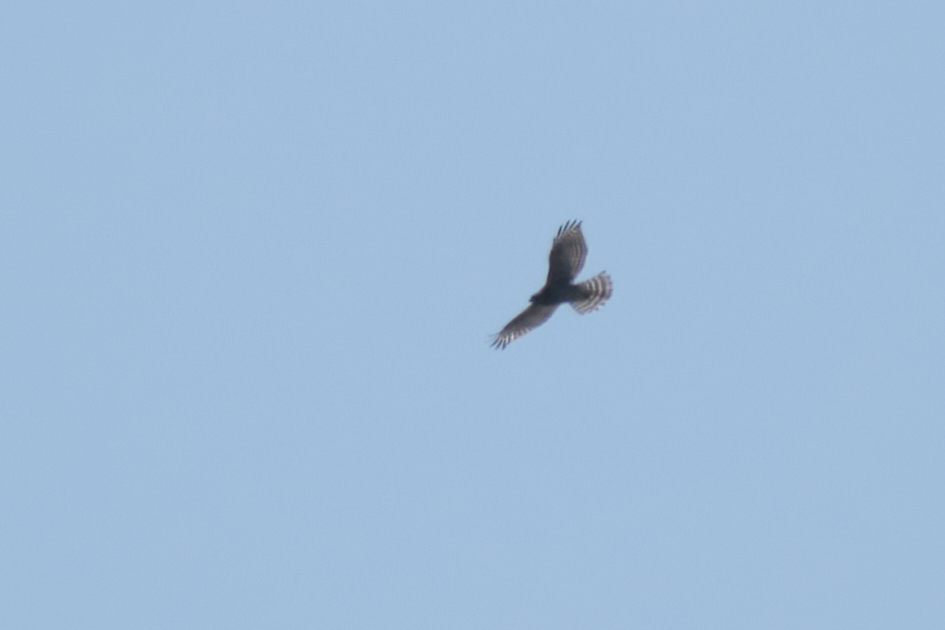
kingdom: Animalia
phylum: Chordata
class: Aves
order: Accipitriformes
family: Accipitridae
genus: Accipiter
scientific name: Accipiter cooperii
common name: Cooper's hawk
